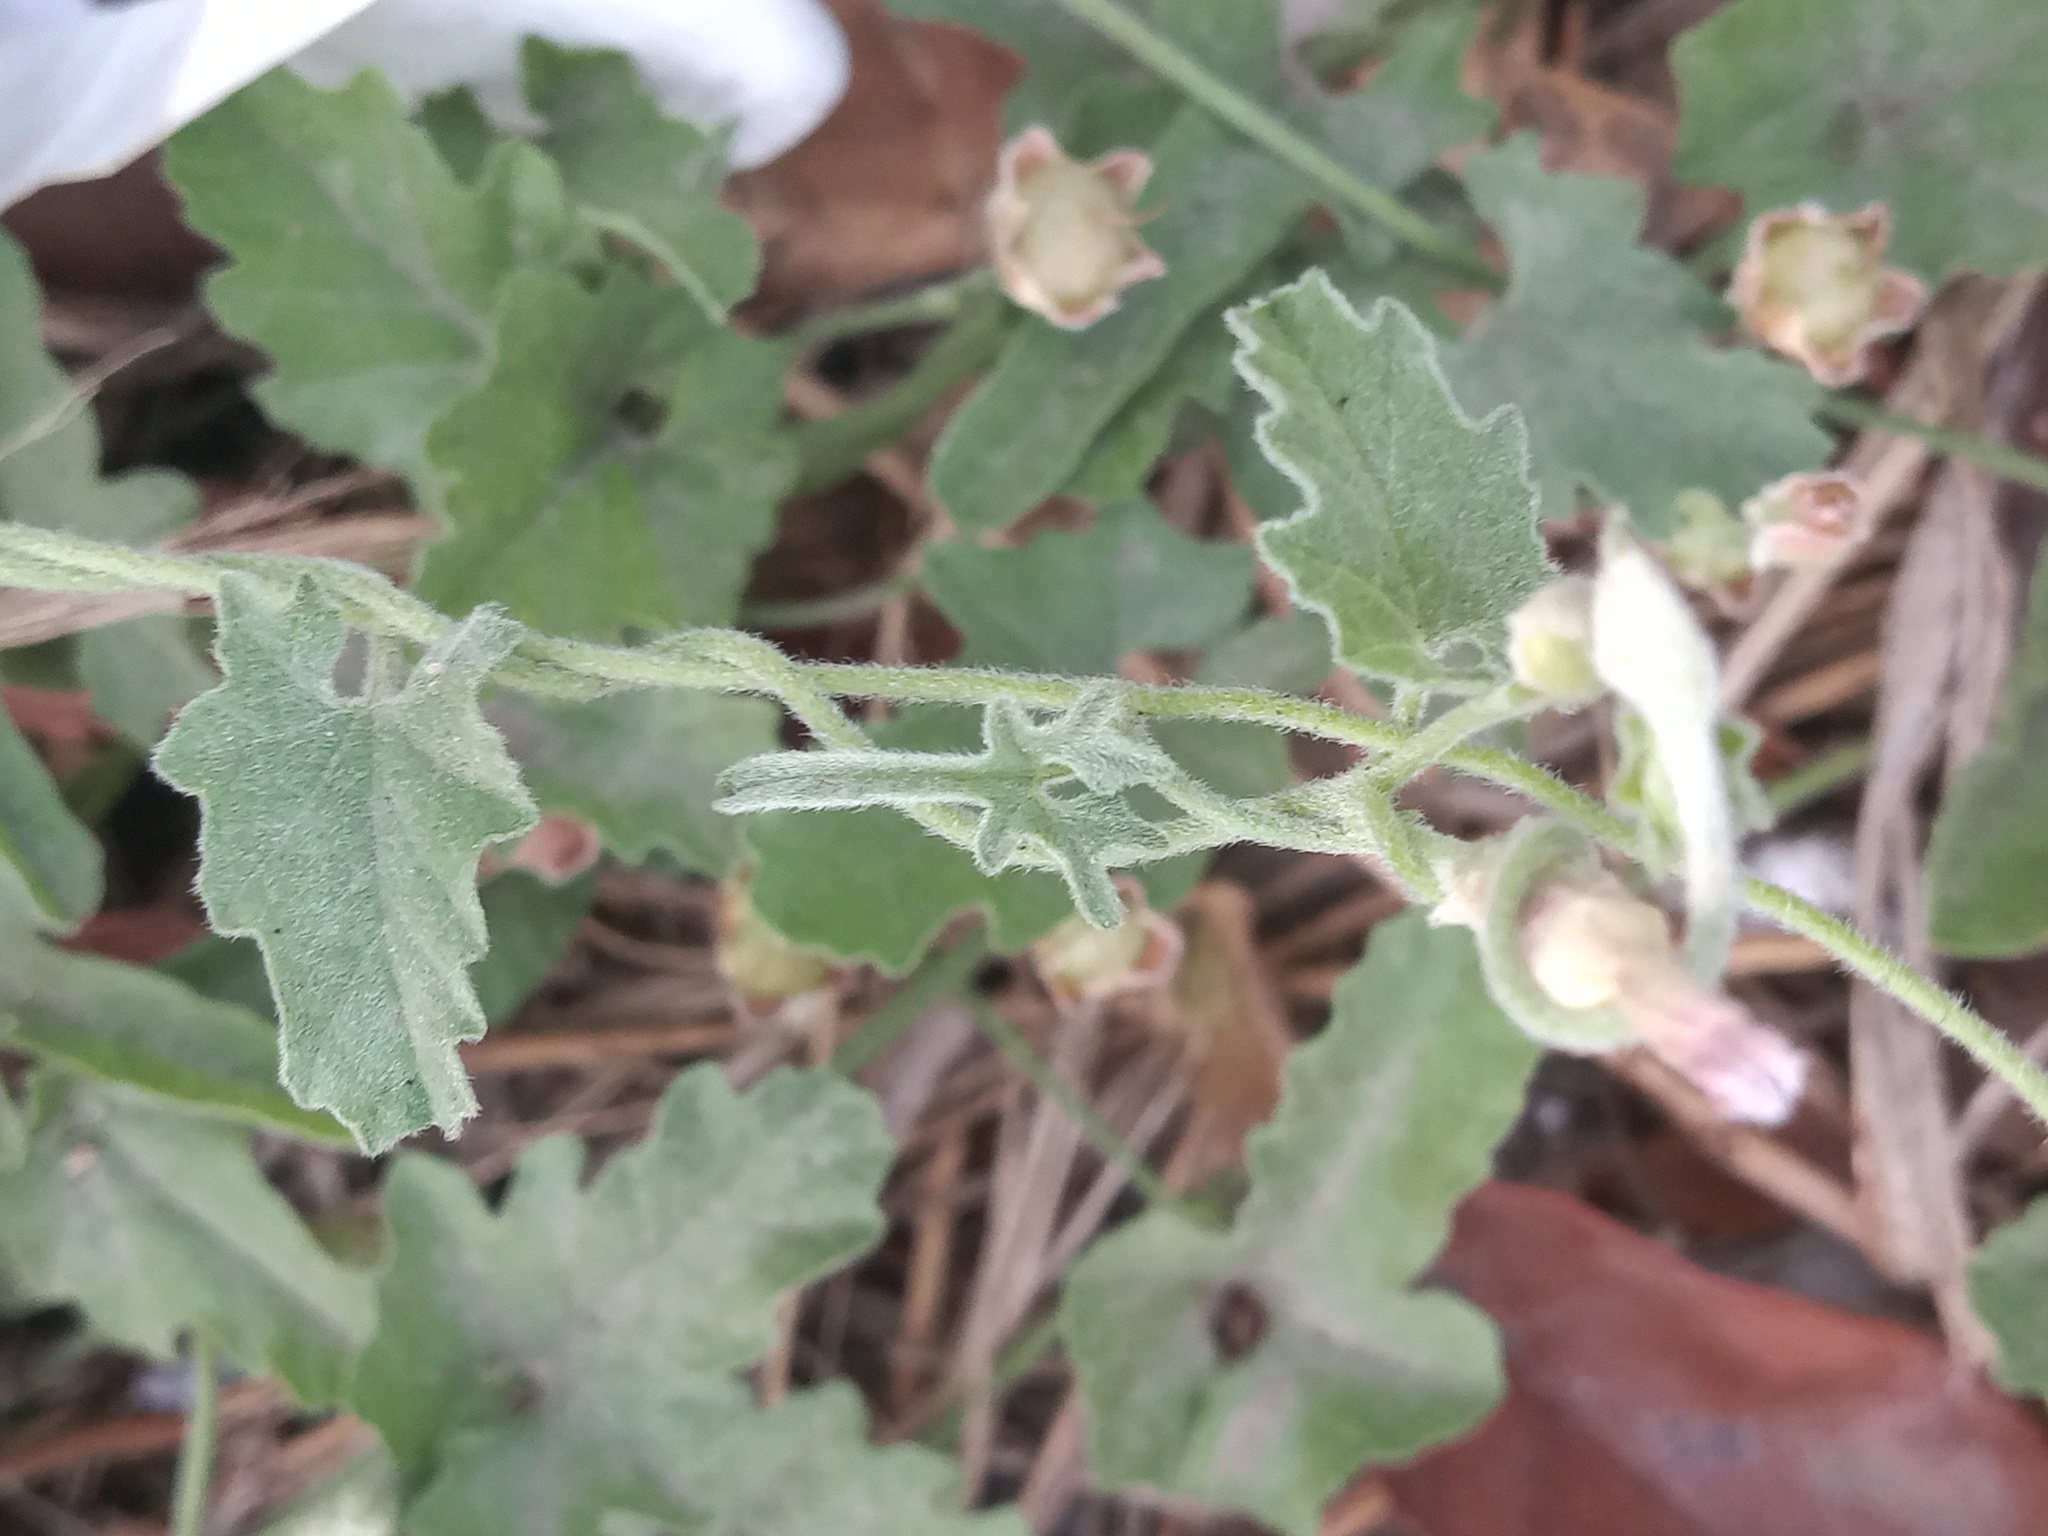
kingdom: Plantae
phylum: Tracheophyta
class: Magnoliopsida
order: Solanales
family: Convolvulaceae
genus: Convolvulus
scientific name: Convolvulus equitans
